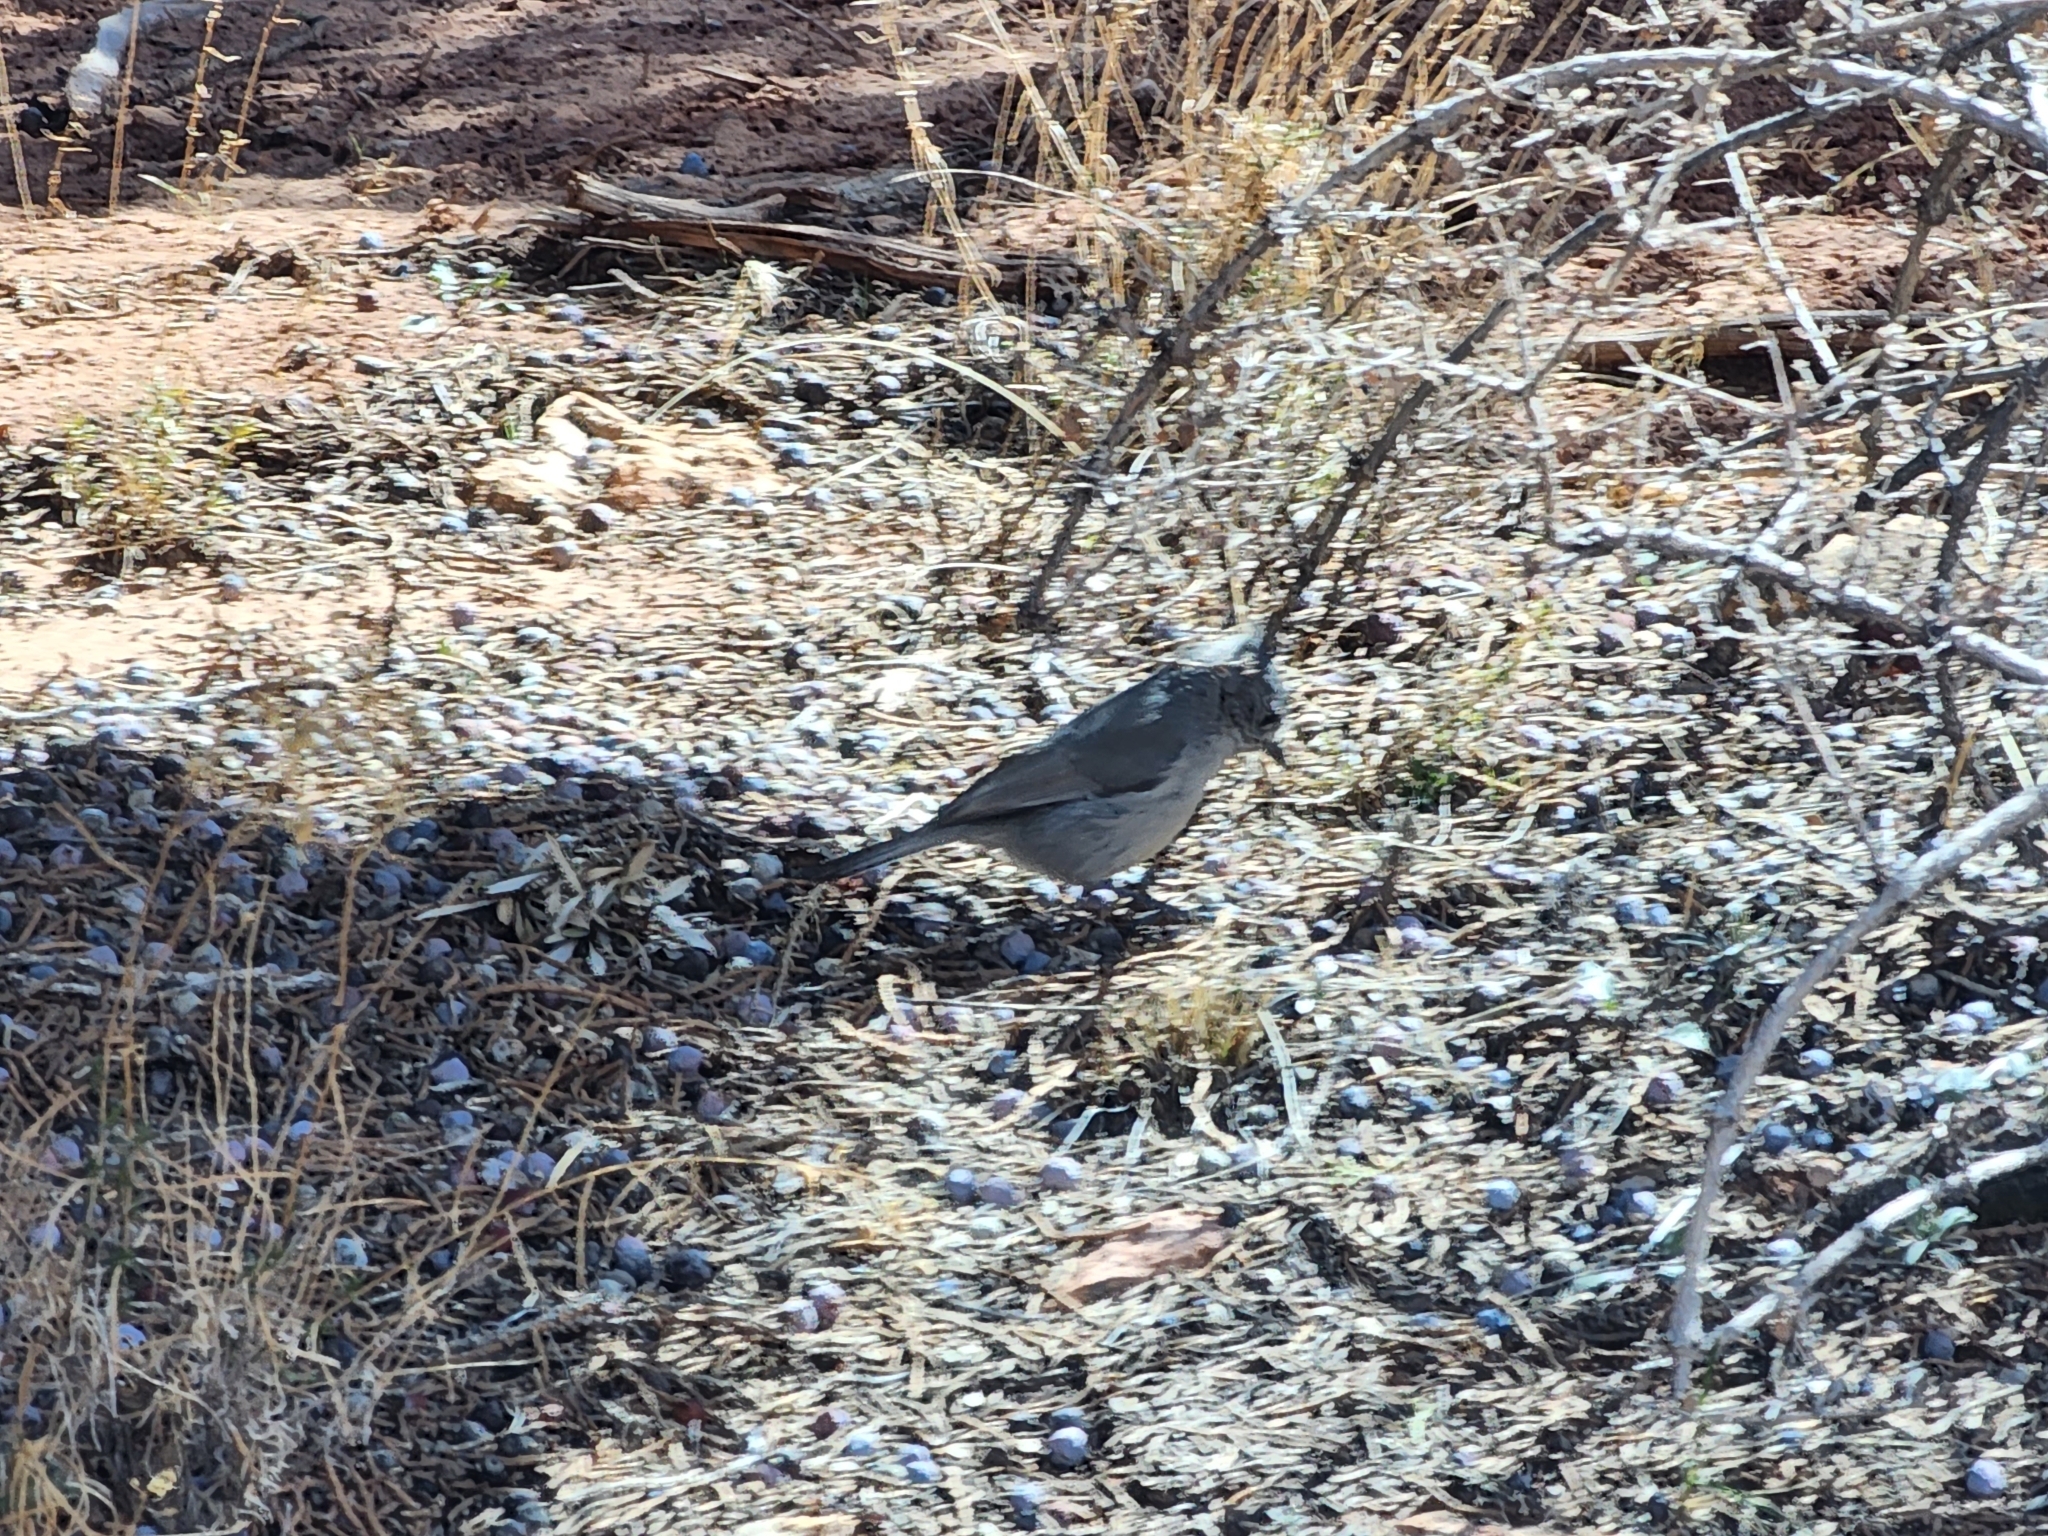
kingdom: Animalia
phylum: Chordata
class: Aves
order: Passeriformes
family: Paridae
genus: Baeolophus
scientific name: Baeolophus ridgwayi
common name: Juniper titmouse
